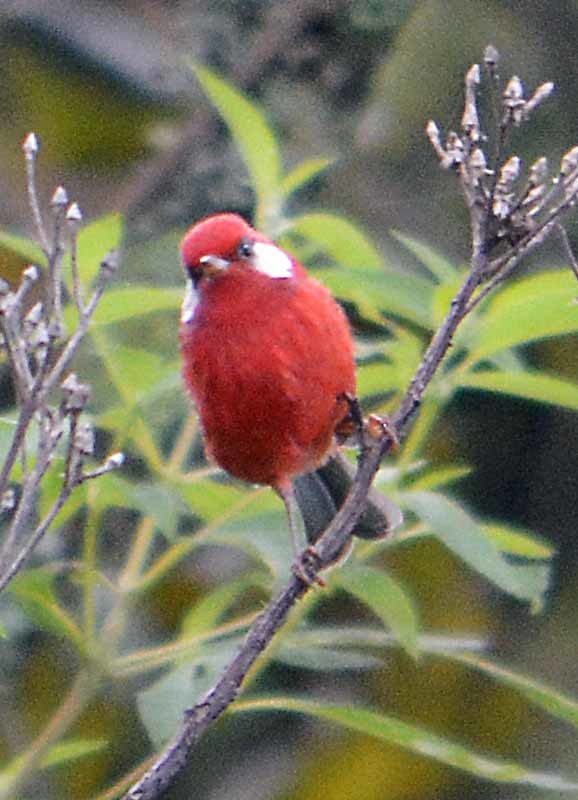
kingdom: Animalia
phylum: Chordata
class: Aves
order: Passeriformes
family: Parulidae
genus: Cardellina
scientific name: Cardellina rubra
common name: Red warbler
